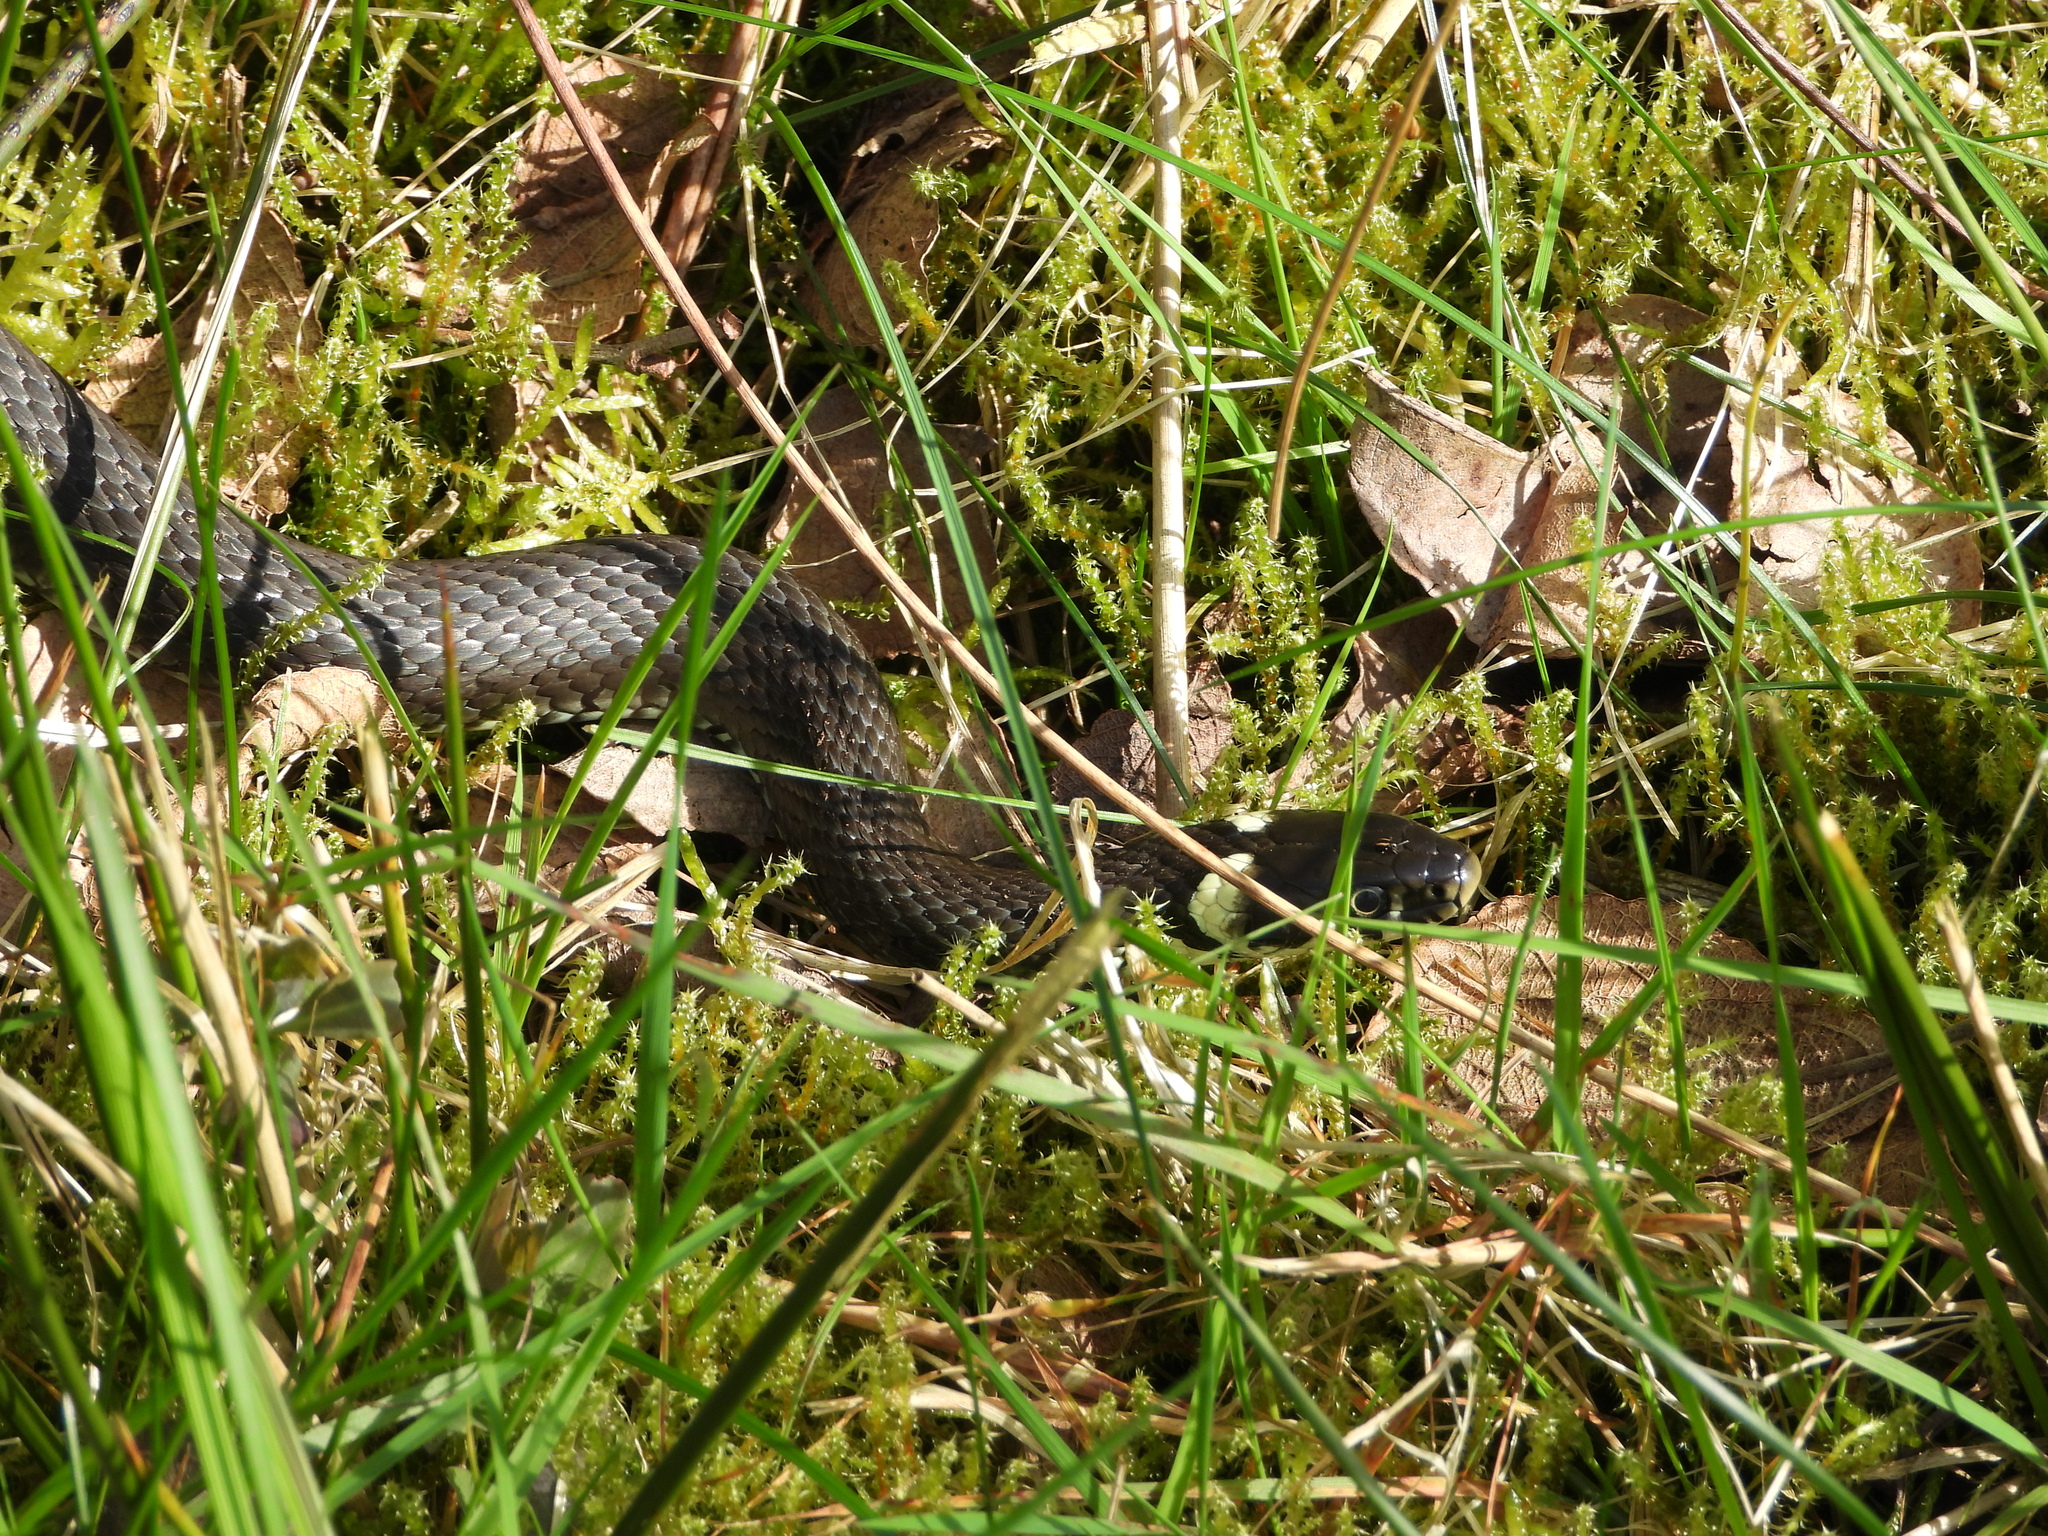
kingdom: Animalia
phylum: Chordata
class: Squamata
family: Colubridae
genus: Natrix
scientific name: Natrix natrix
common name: Grass snake
